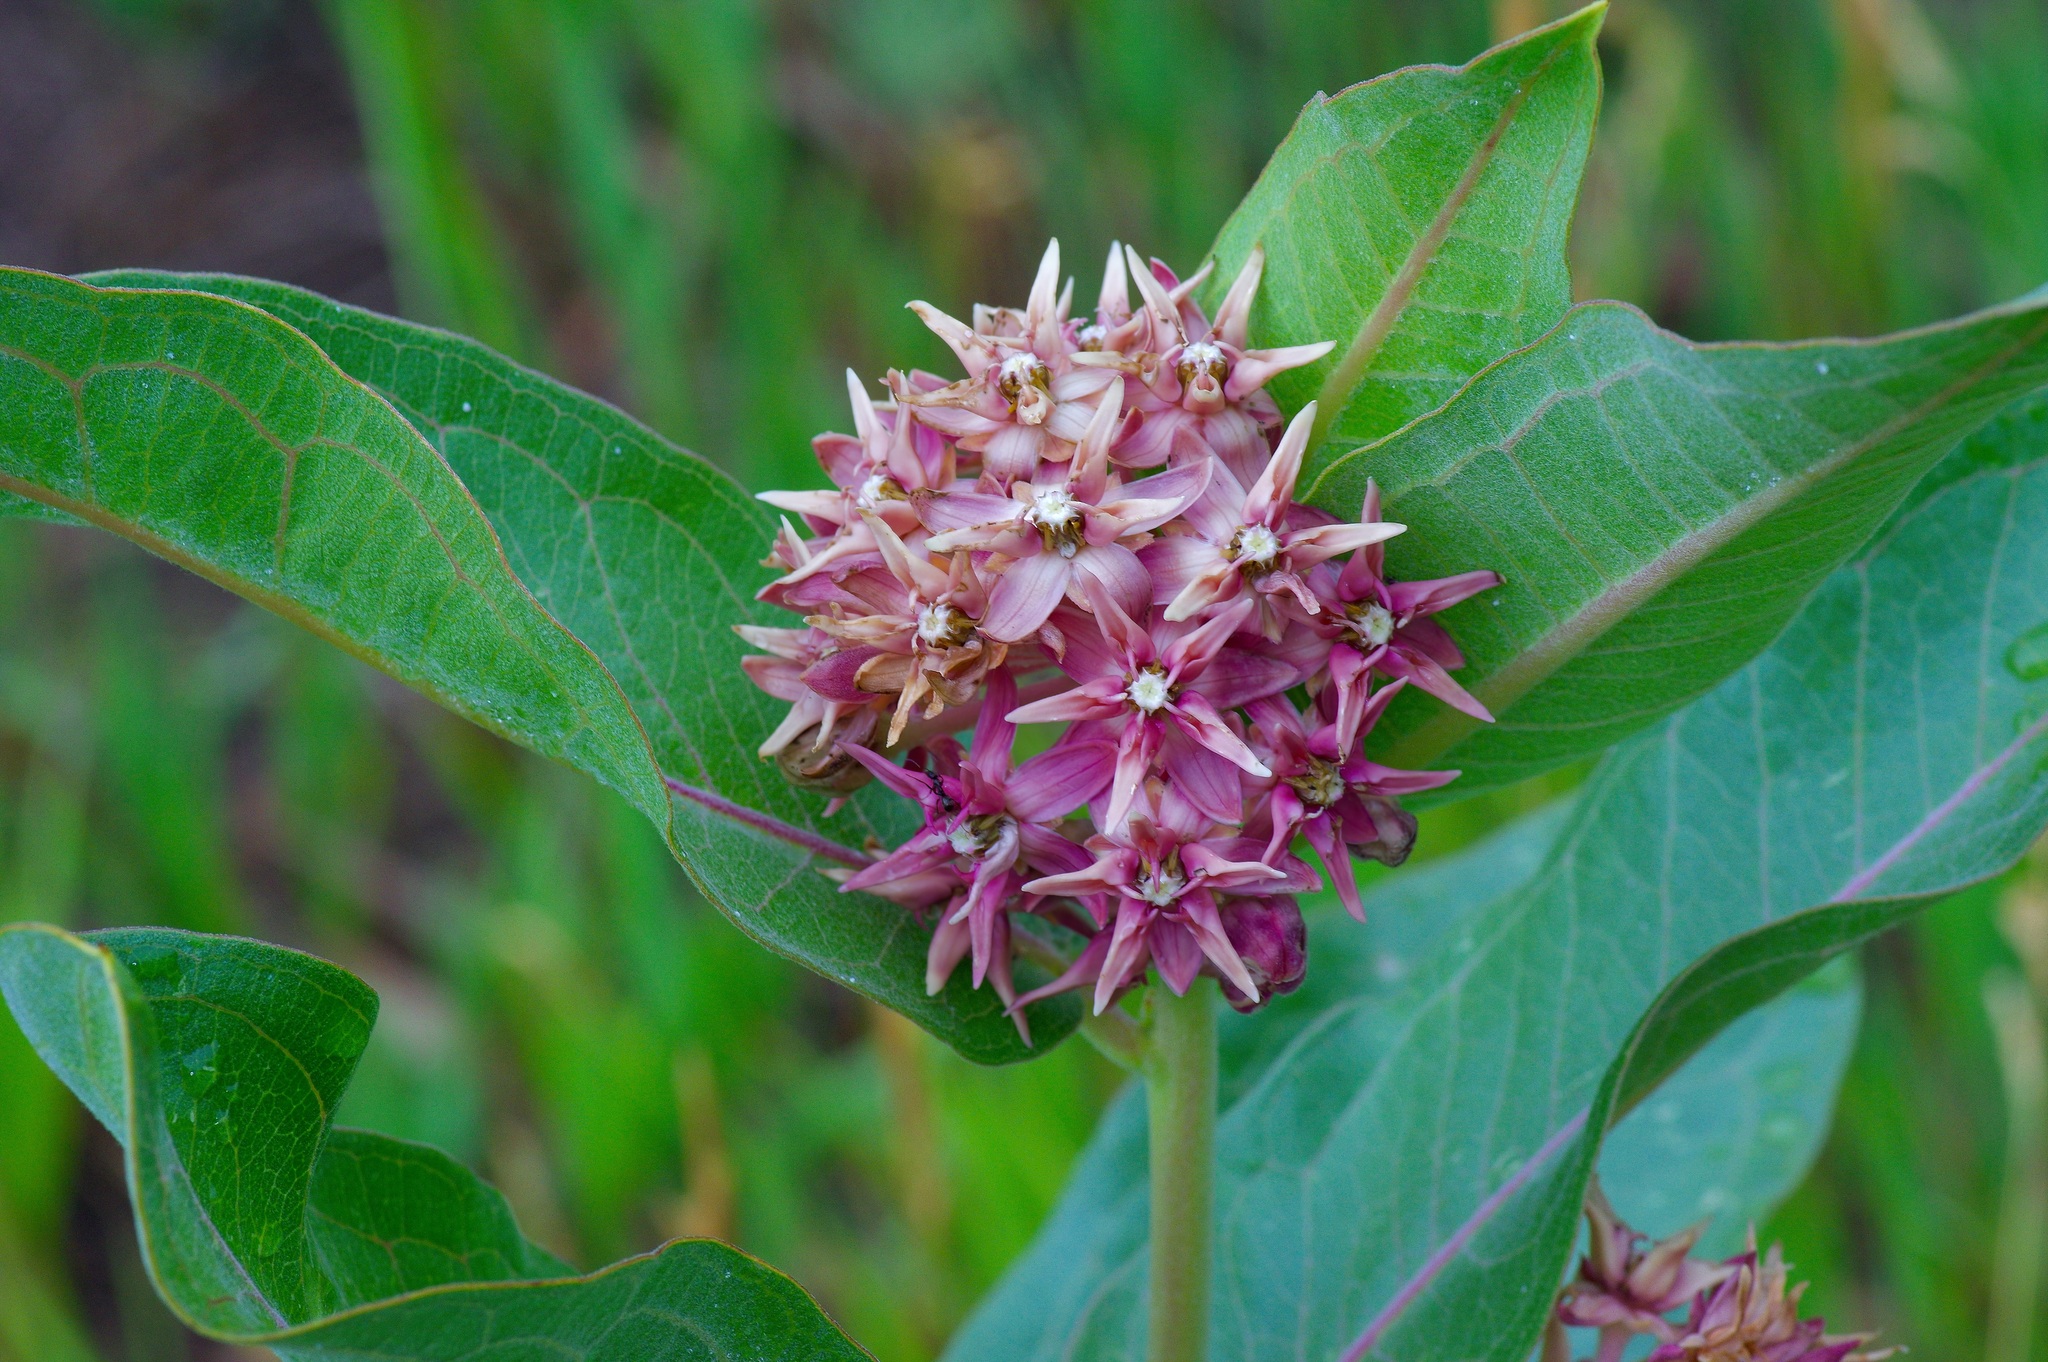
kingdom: Plantae
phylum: Tracheophyta
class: Magnoliopsida
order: Gentianales
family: Apocynaceae
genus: Asclepias
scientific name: Asclepias speciosa
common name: Showy milkweed
